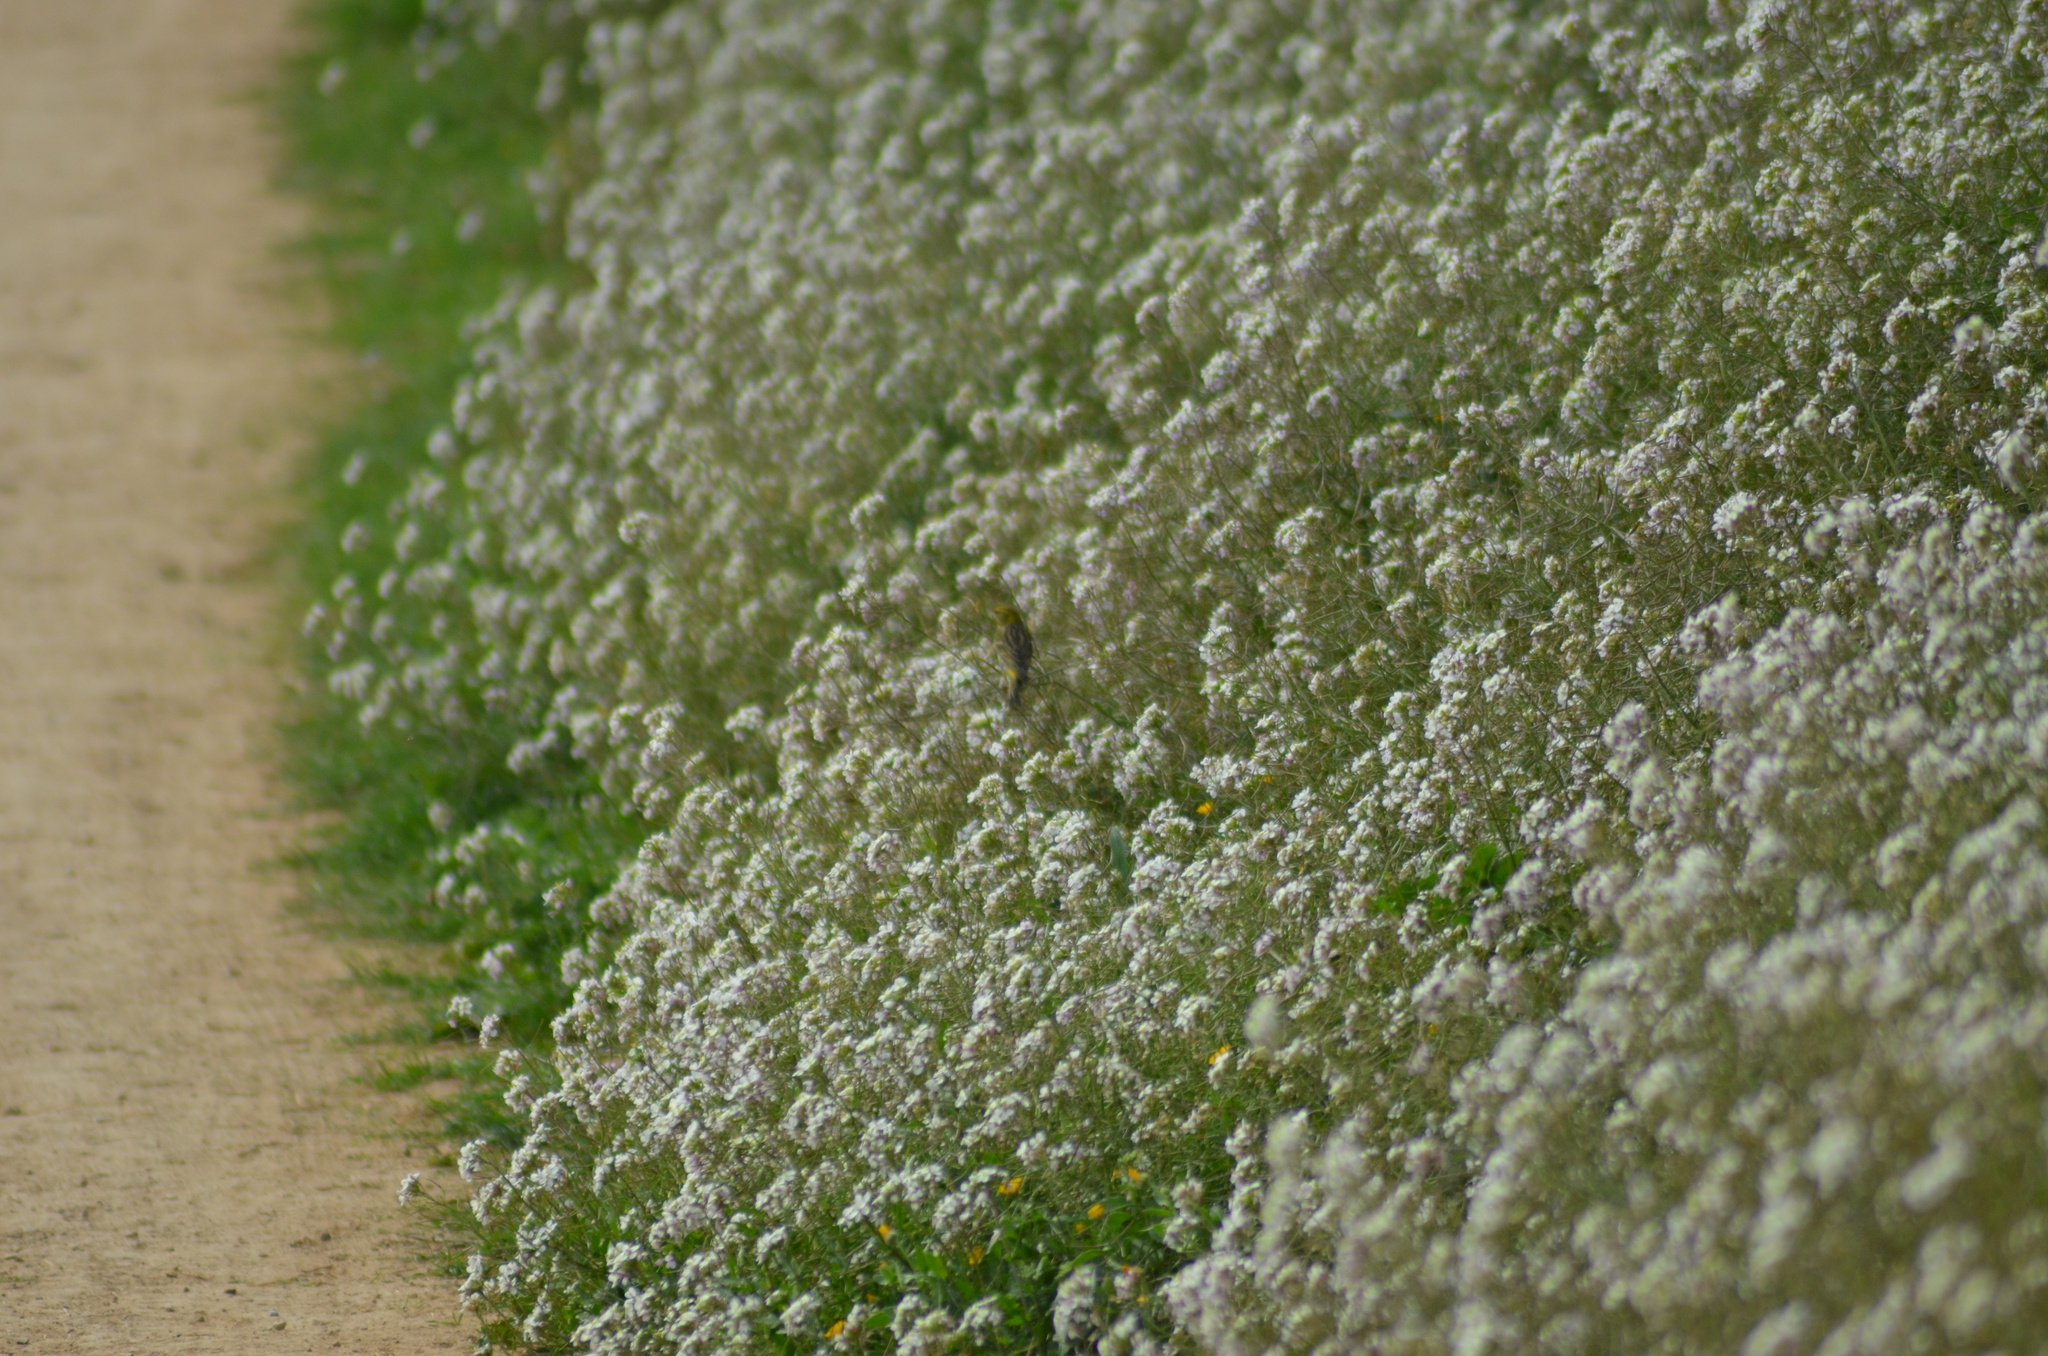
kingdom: Animalia
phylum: Chordata
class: Aves
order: Passeriformes
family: Fringillidae
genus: Serinus
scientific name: Serinus serinus
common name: European serin
